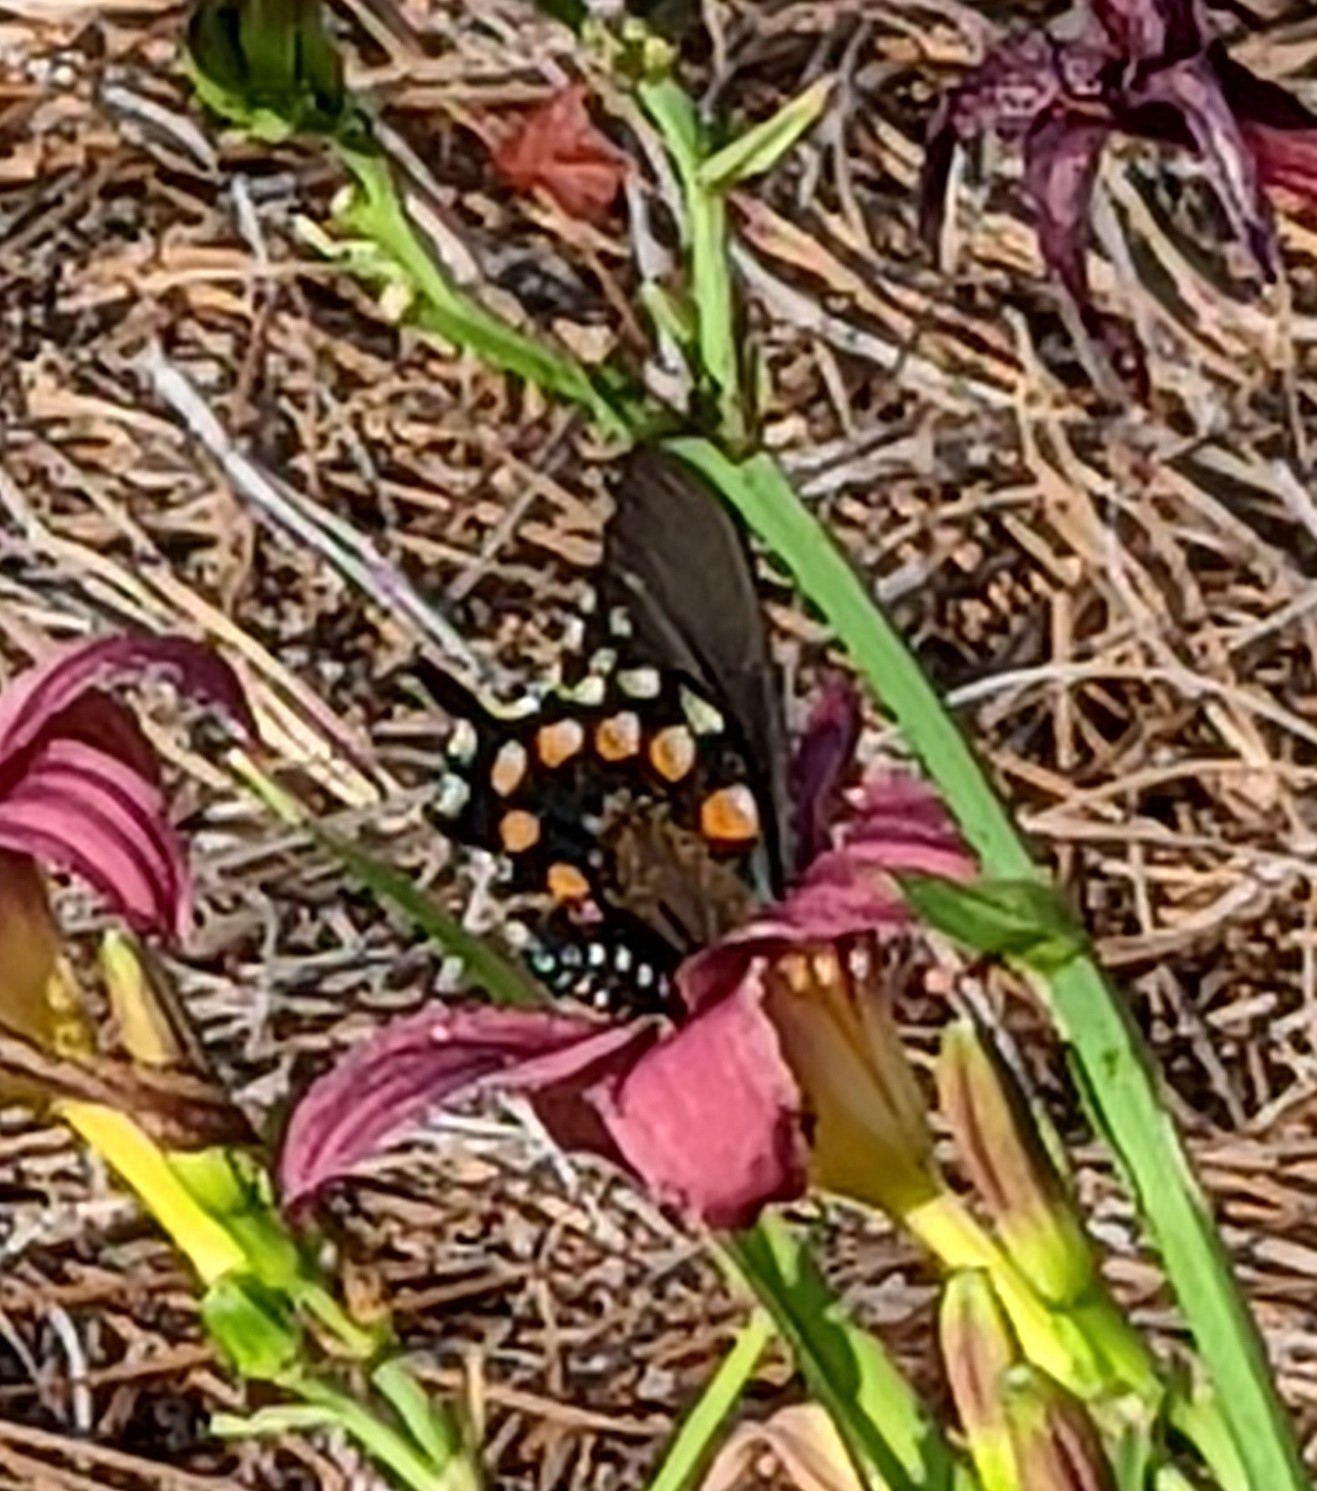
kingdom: Animalia
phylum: Arthropoda
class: Insecta
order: Lepidoptera
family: Papilionidae
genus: Battus
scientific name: Battus philenor
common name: Pipevine swallowtail
